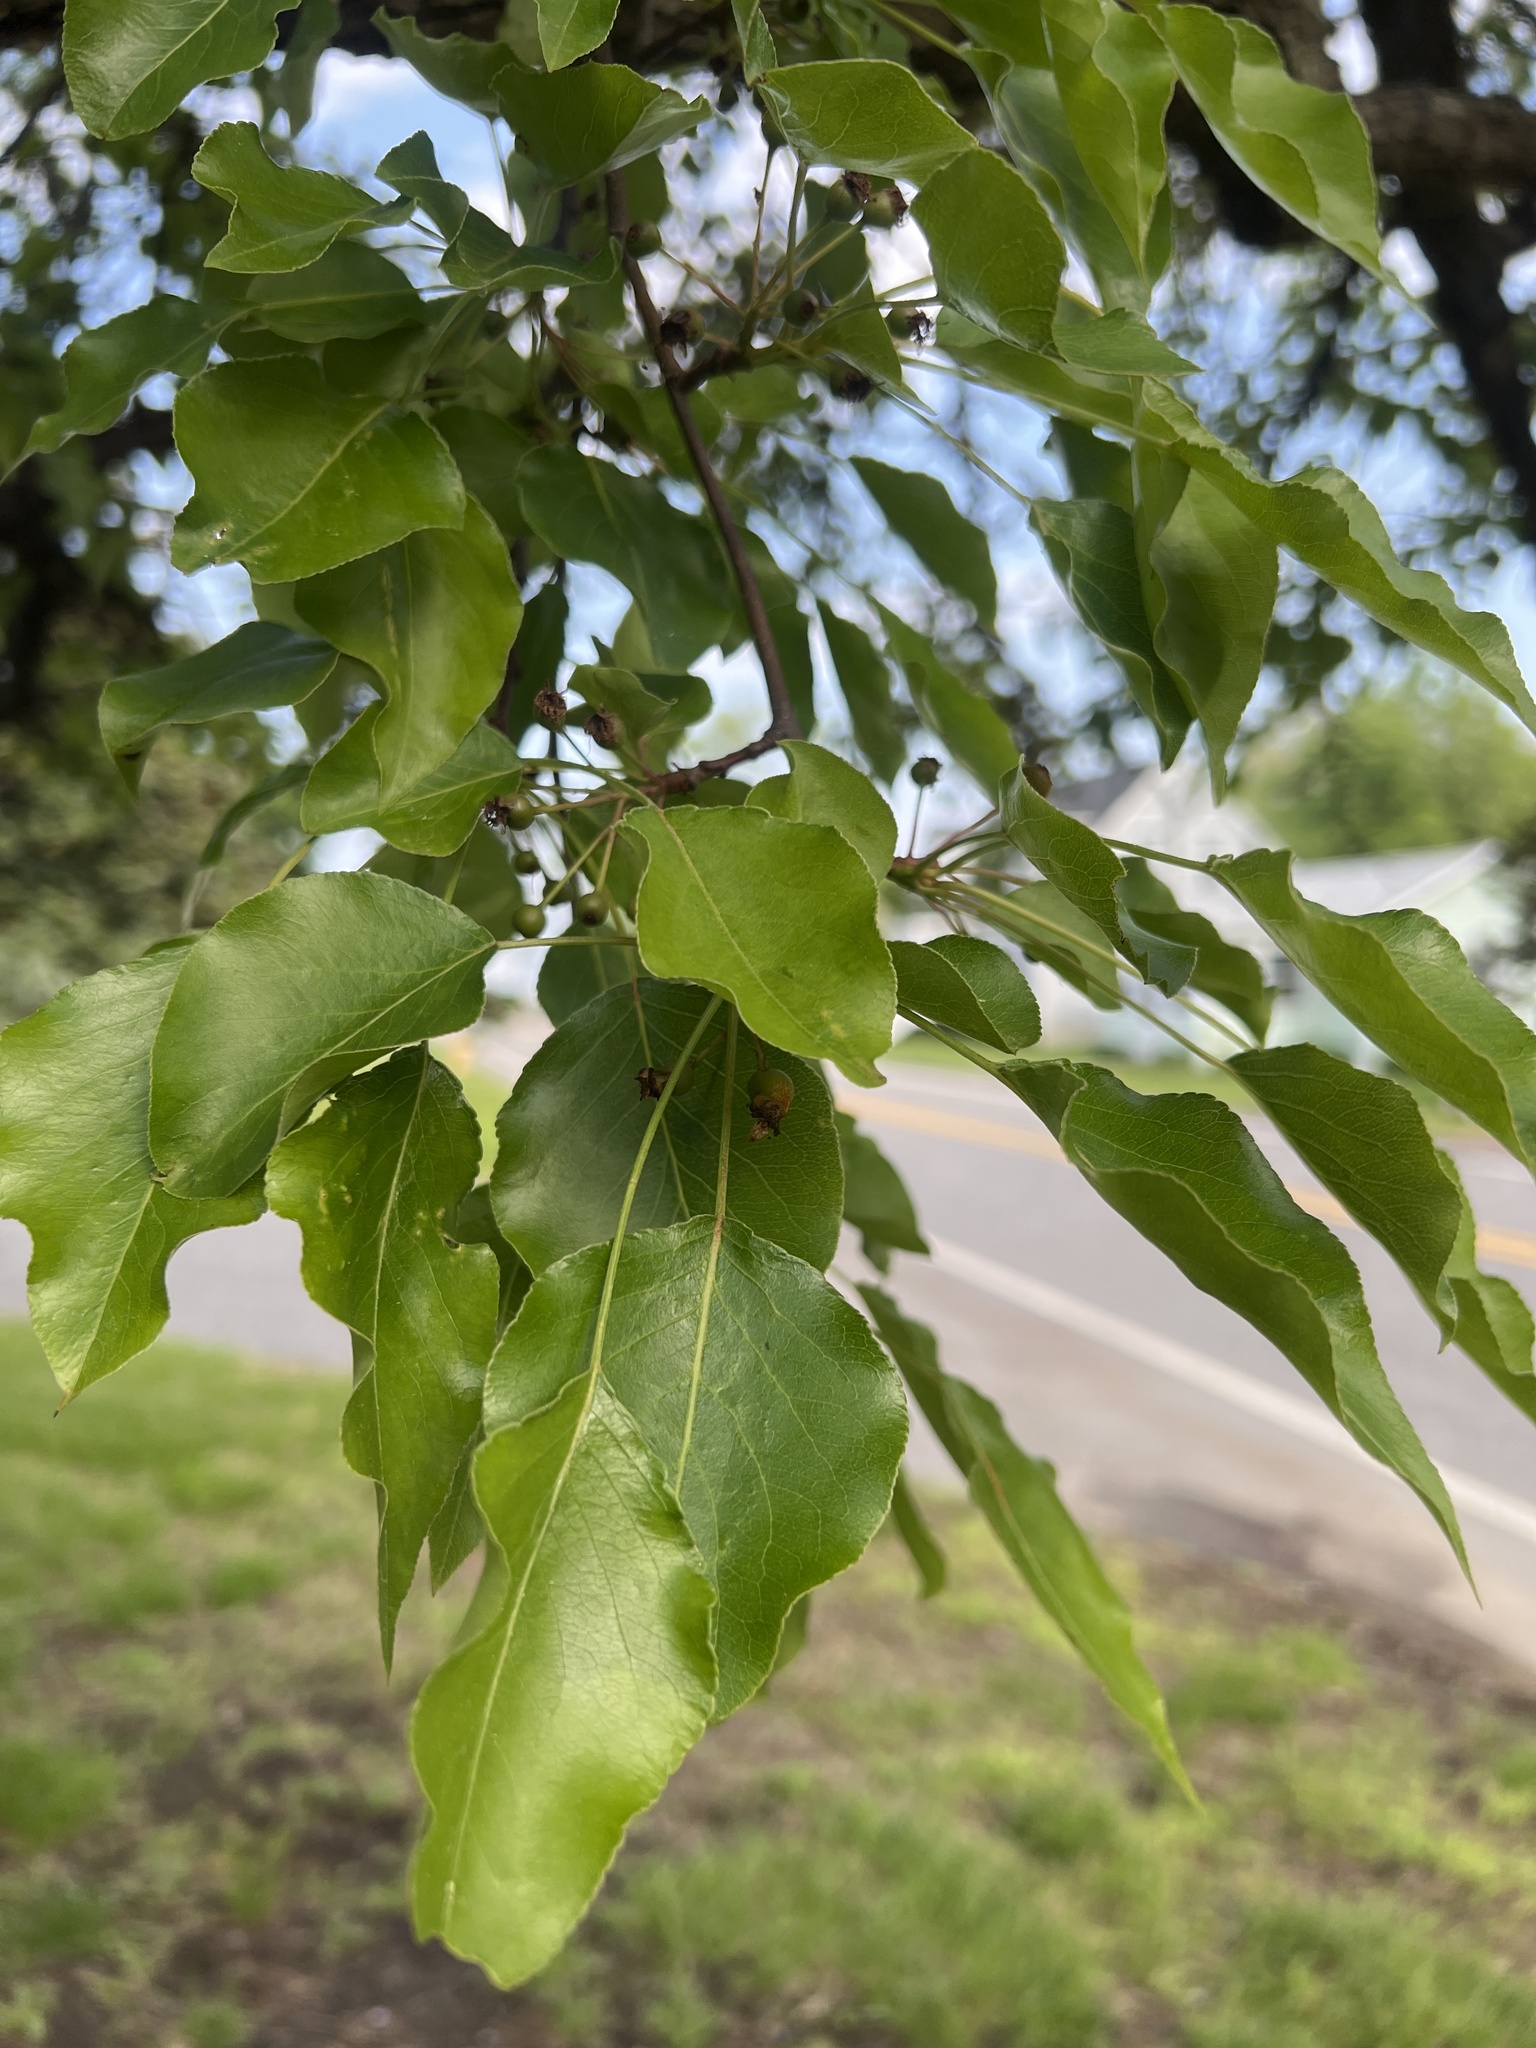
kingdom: Plantae
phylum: Tracheophyta
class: Magnoliopsida
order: Rosales
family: Rosaceae
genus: Pyrus
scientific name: Pyrus calleryana
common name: Callery pear
